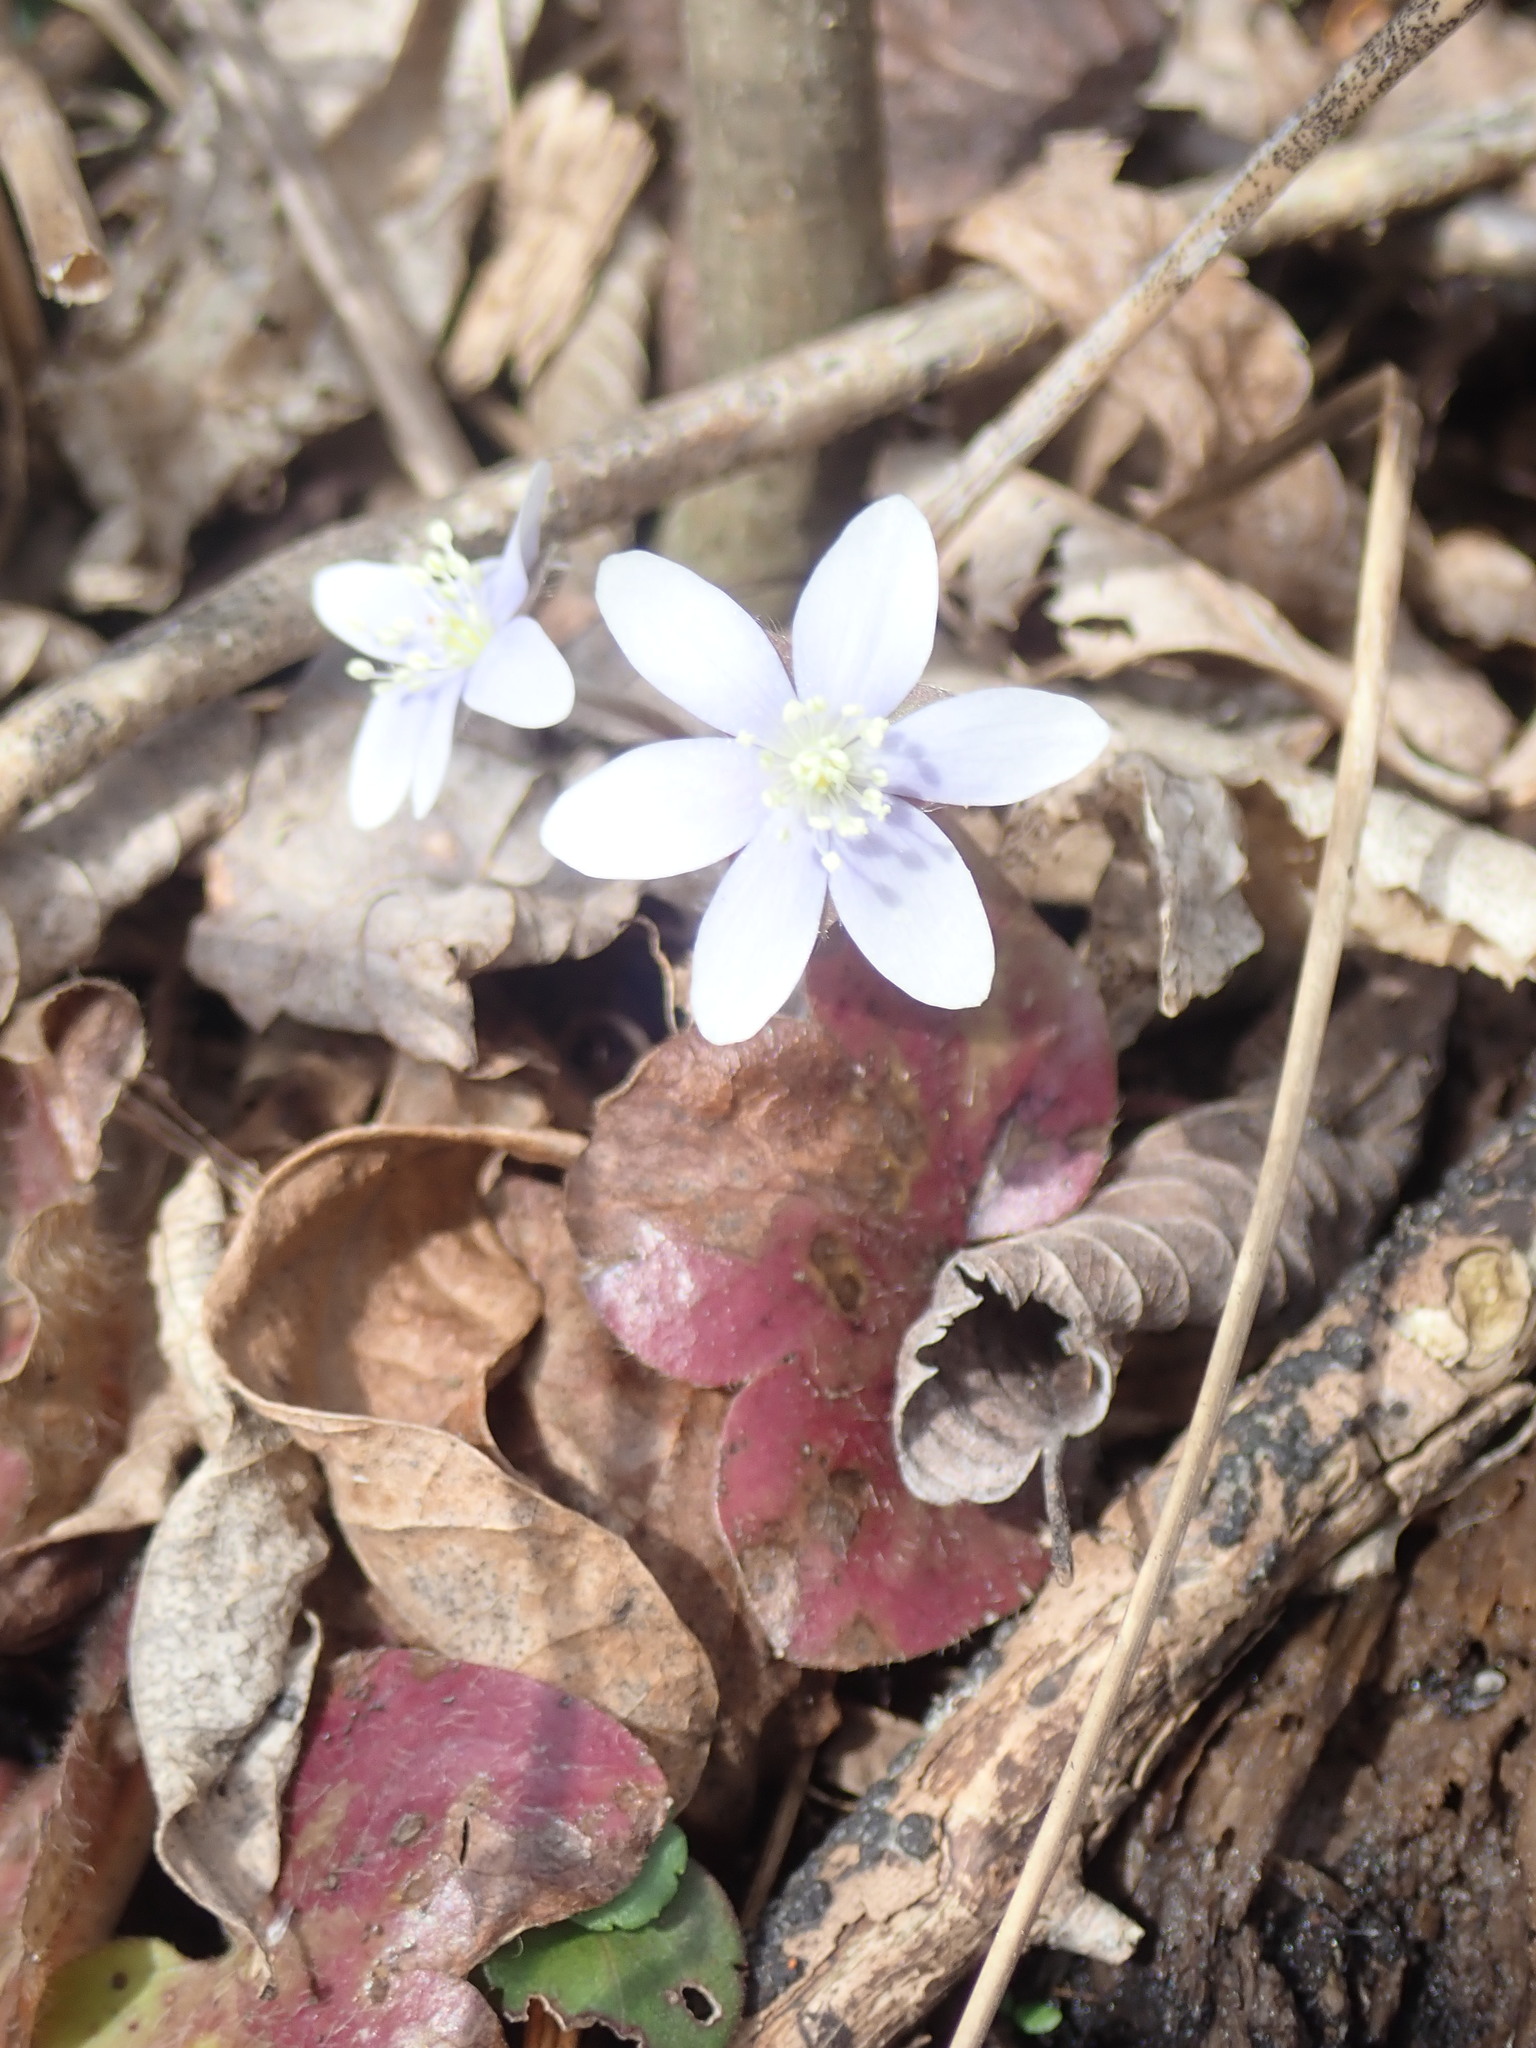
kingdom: Plantae
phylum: Tracheophyta
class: Magnoliopsida
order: Ranunculales
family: Ranunculaceae
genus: Hepatica
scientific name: Hepatica americana
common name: American hepatica
